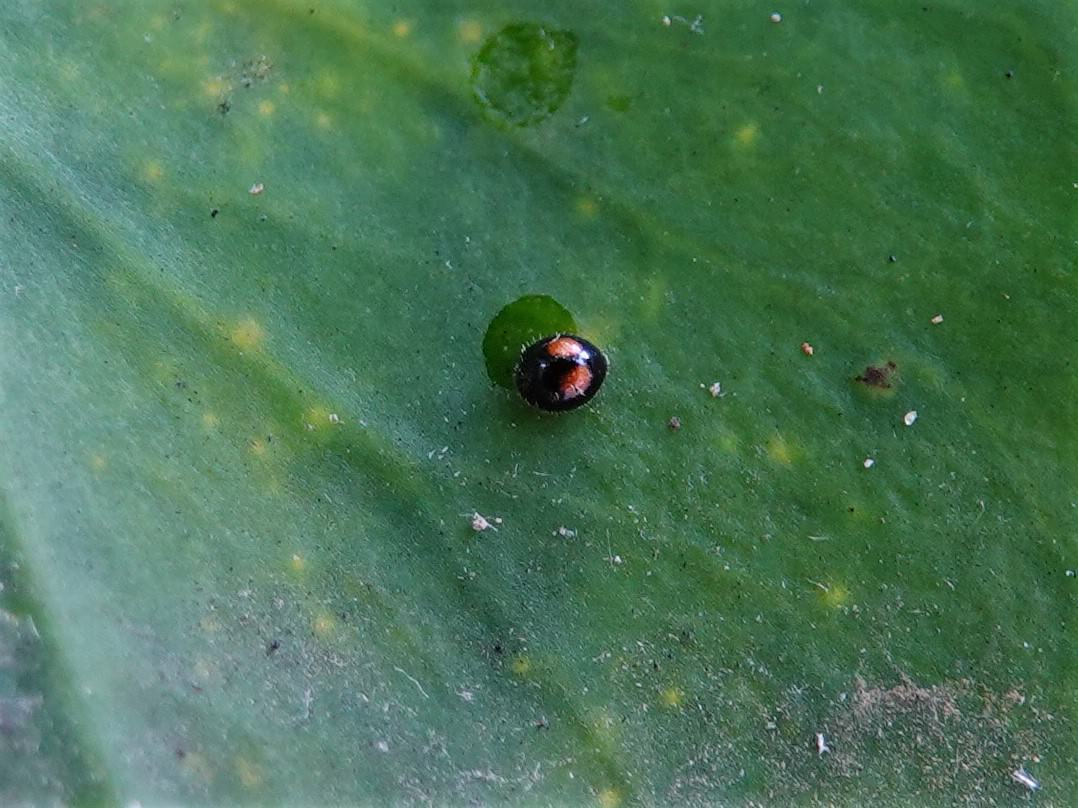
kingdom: Animalia
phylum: Arthropoda
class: Insecta
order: Coleoptera
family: Coccinellidae
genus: Serangium
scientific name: Serangium maculigerum
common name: Lady beetle
